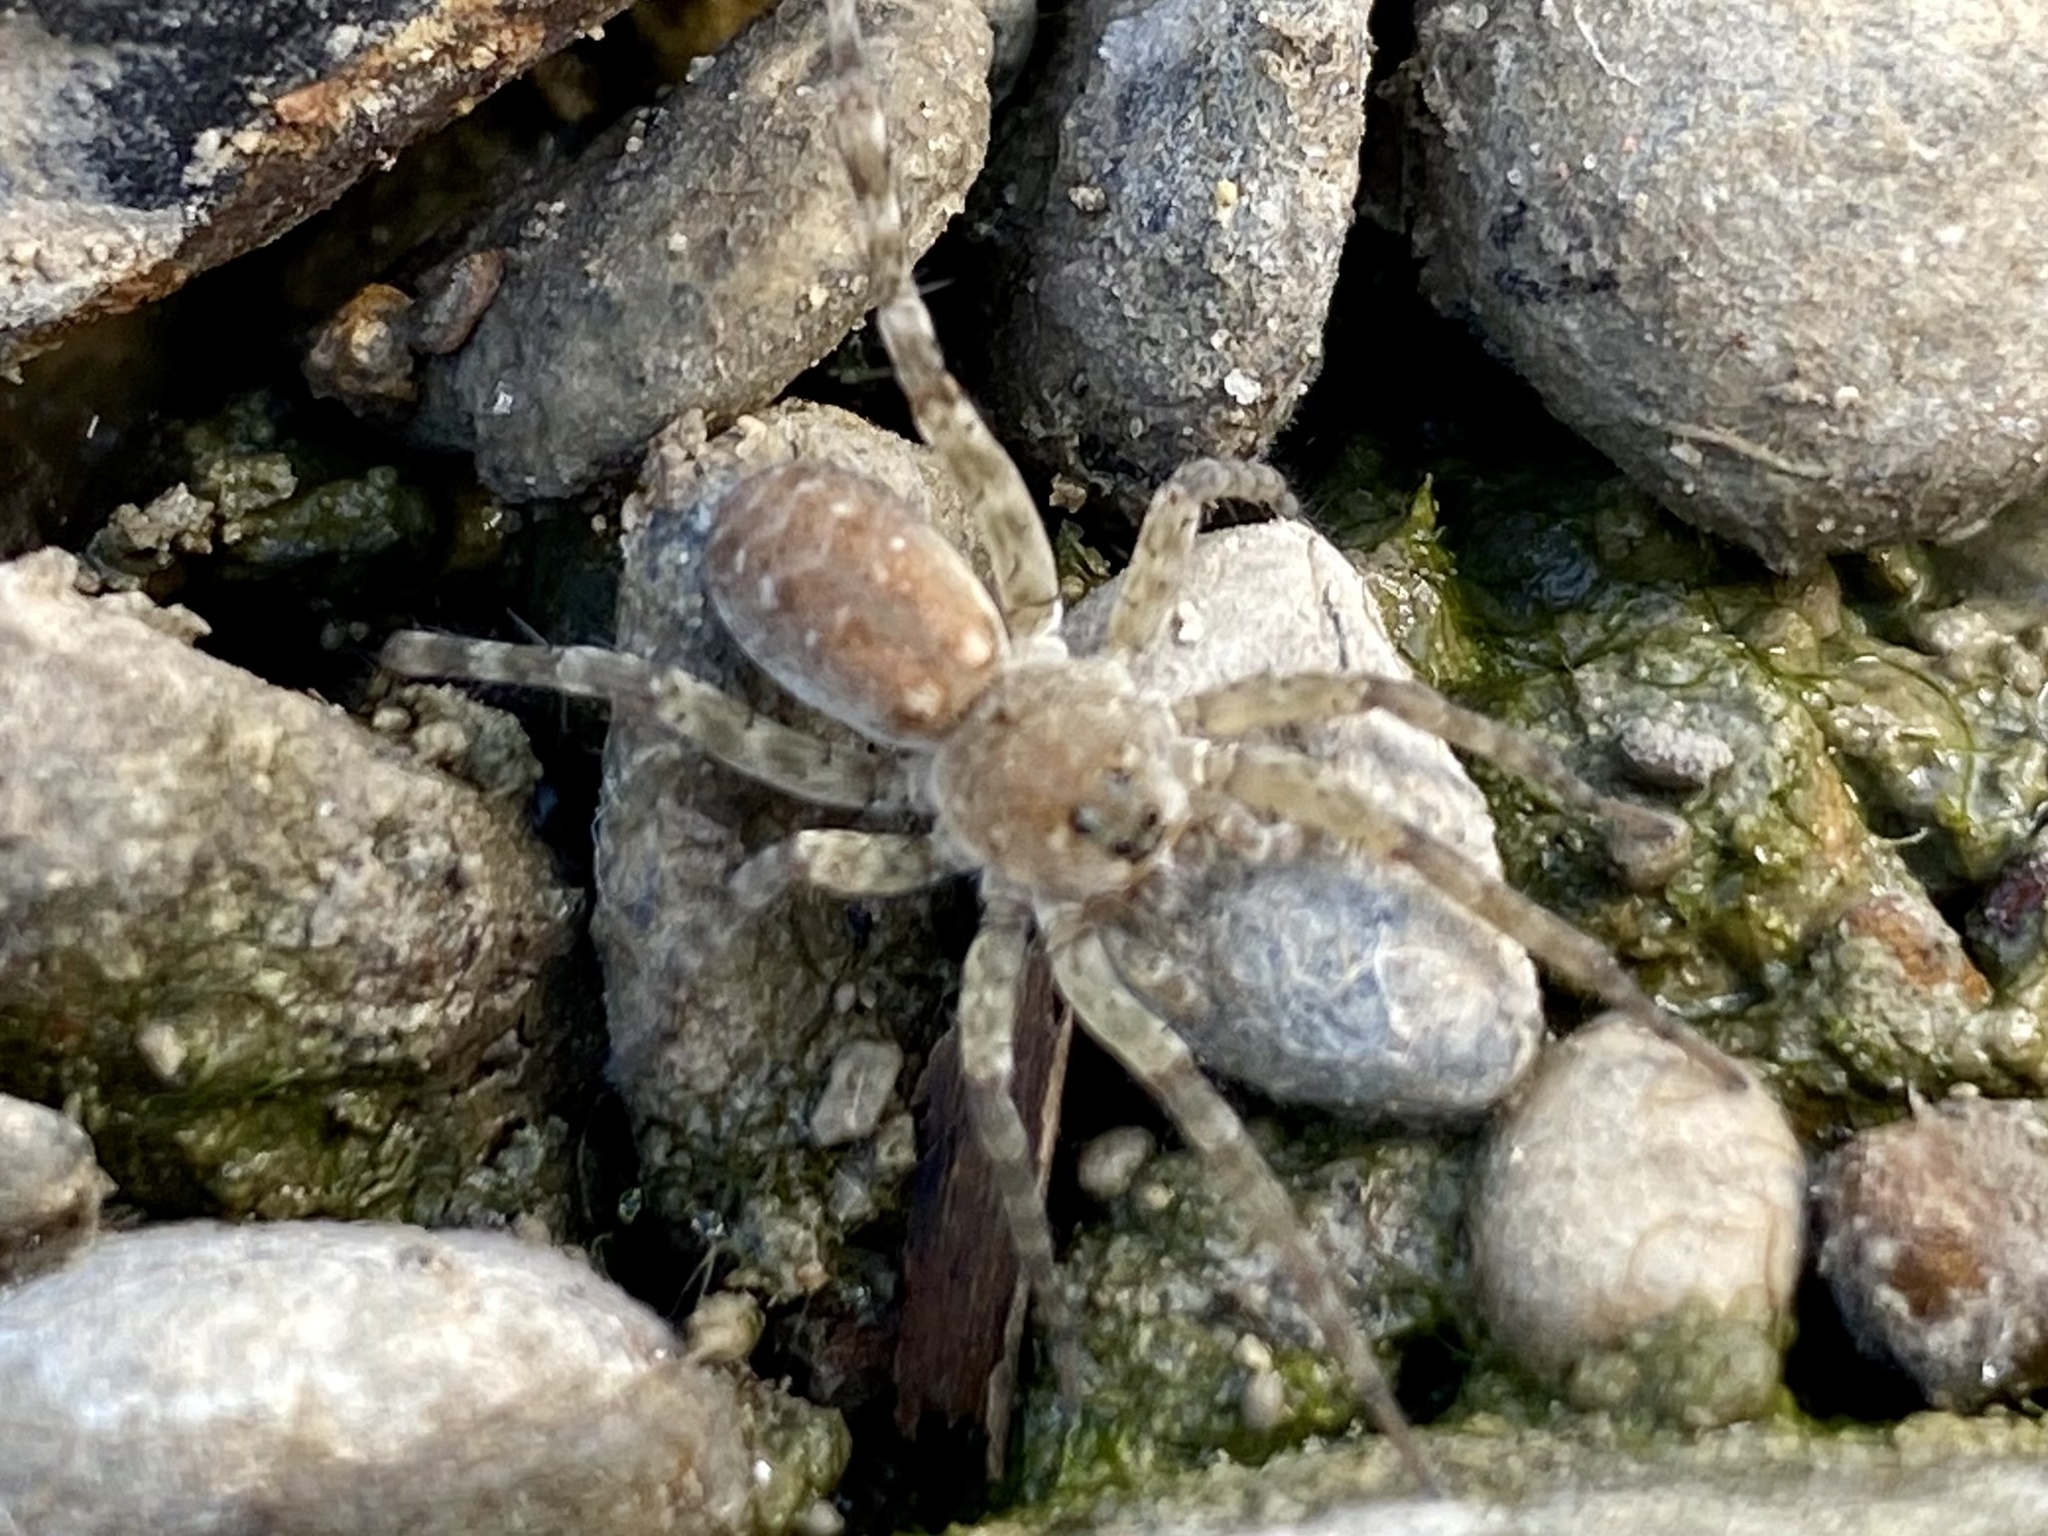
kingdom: Animalia
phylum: Arthropoda
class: Arachnida
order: Araneae
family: Lycosidae
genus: Arctosa
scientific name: Arctosa littoralis
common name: Wolf spiders
